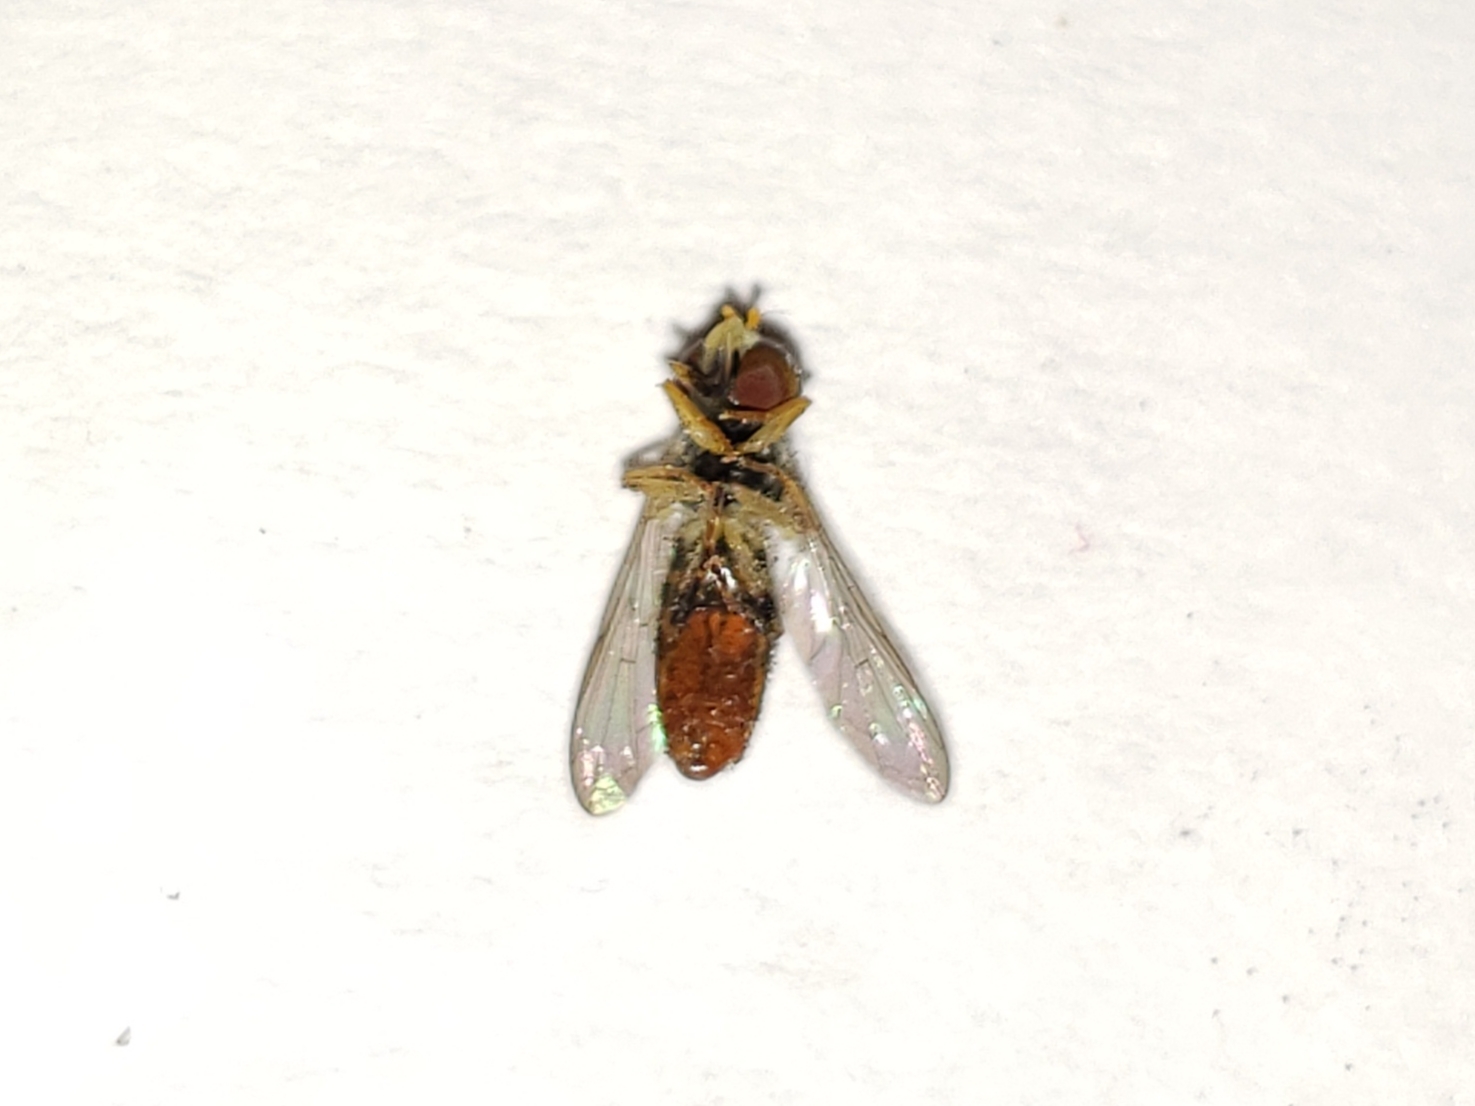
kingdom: Animalia
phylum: Arthropoda
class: Insecta
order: Diptera
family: Syrphidae
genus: Toxomerus
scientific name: Toxomerus boscii
